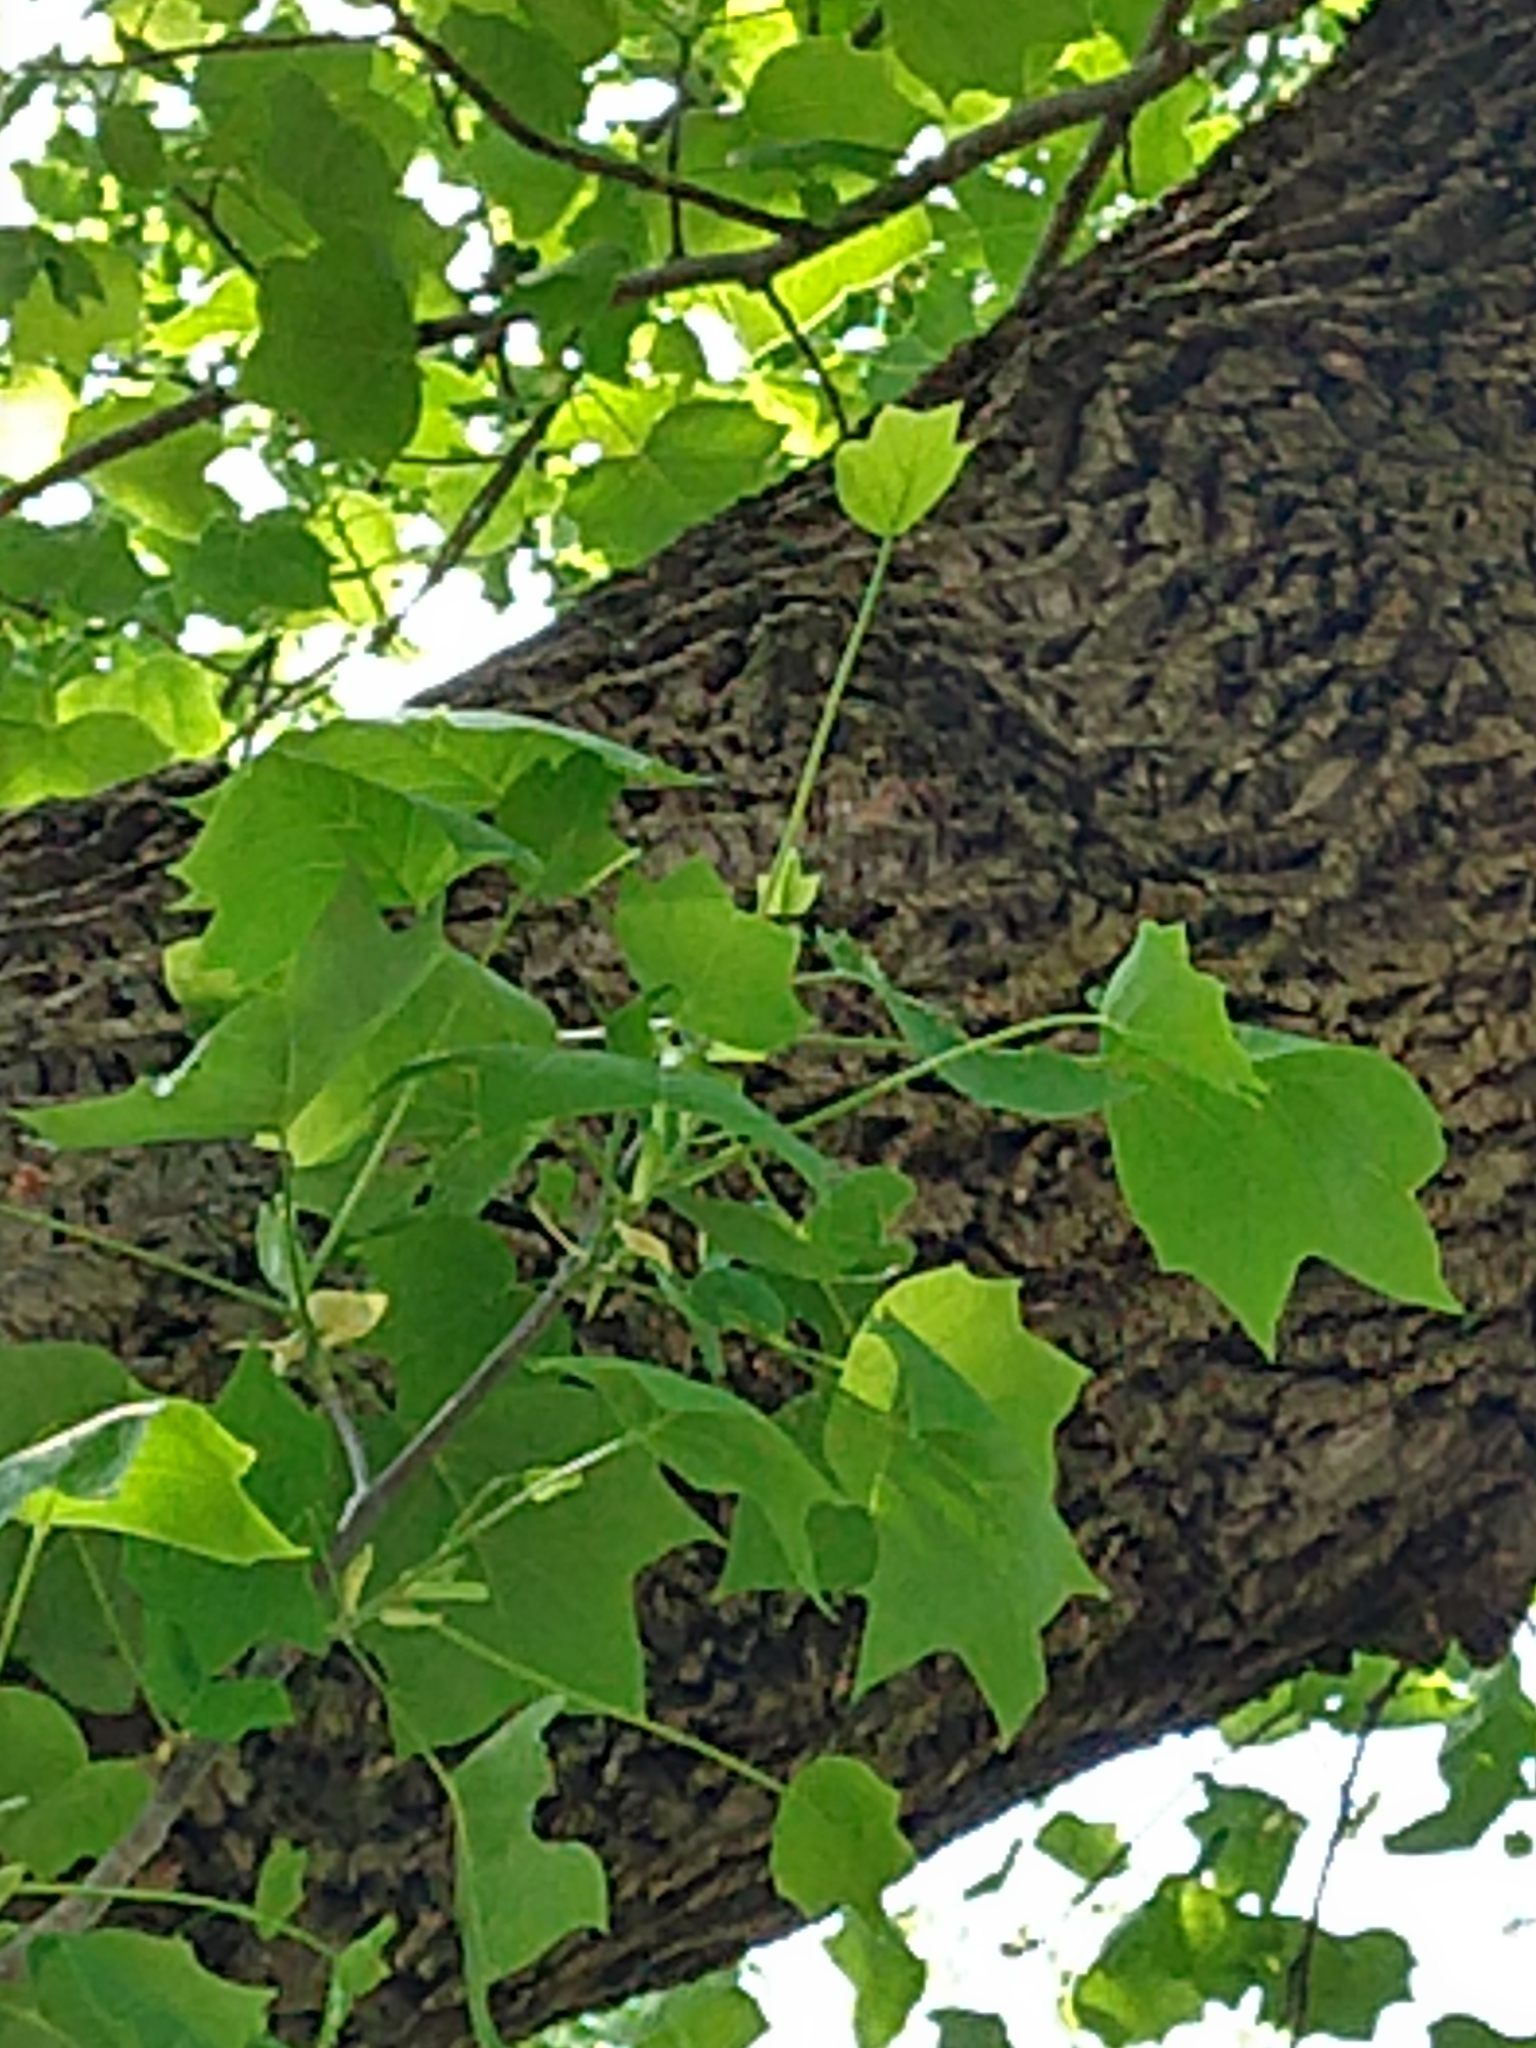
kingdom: Plantae
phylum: Tracheophyta
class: Magnoliopsida
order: Magnoliales
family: Magnoliaceae
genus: Liriodendron
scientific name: Liriodendron tulipifera
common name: Tulip tree
